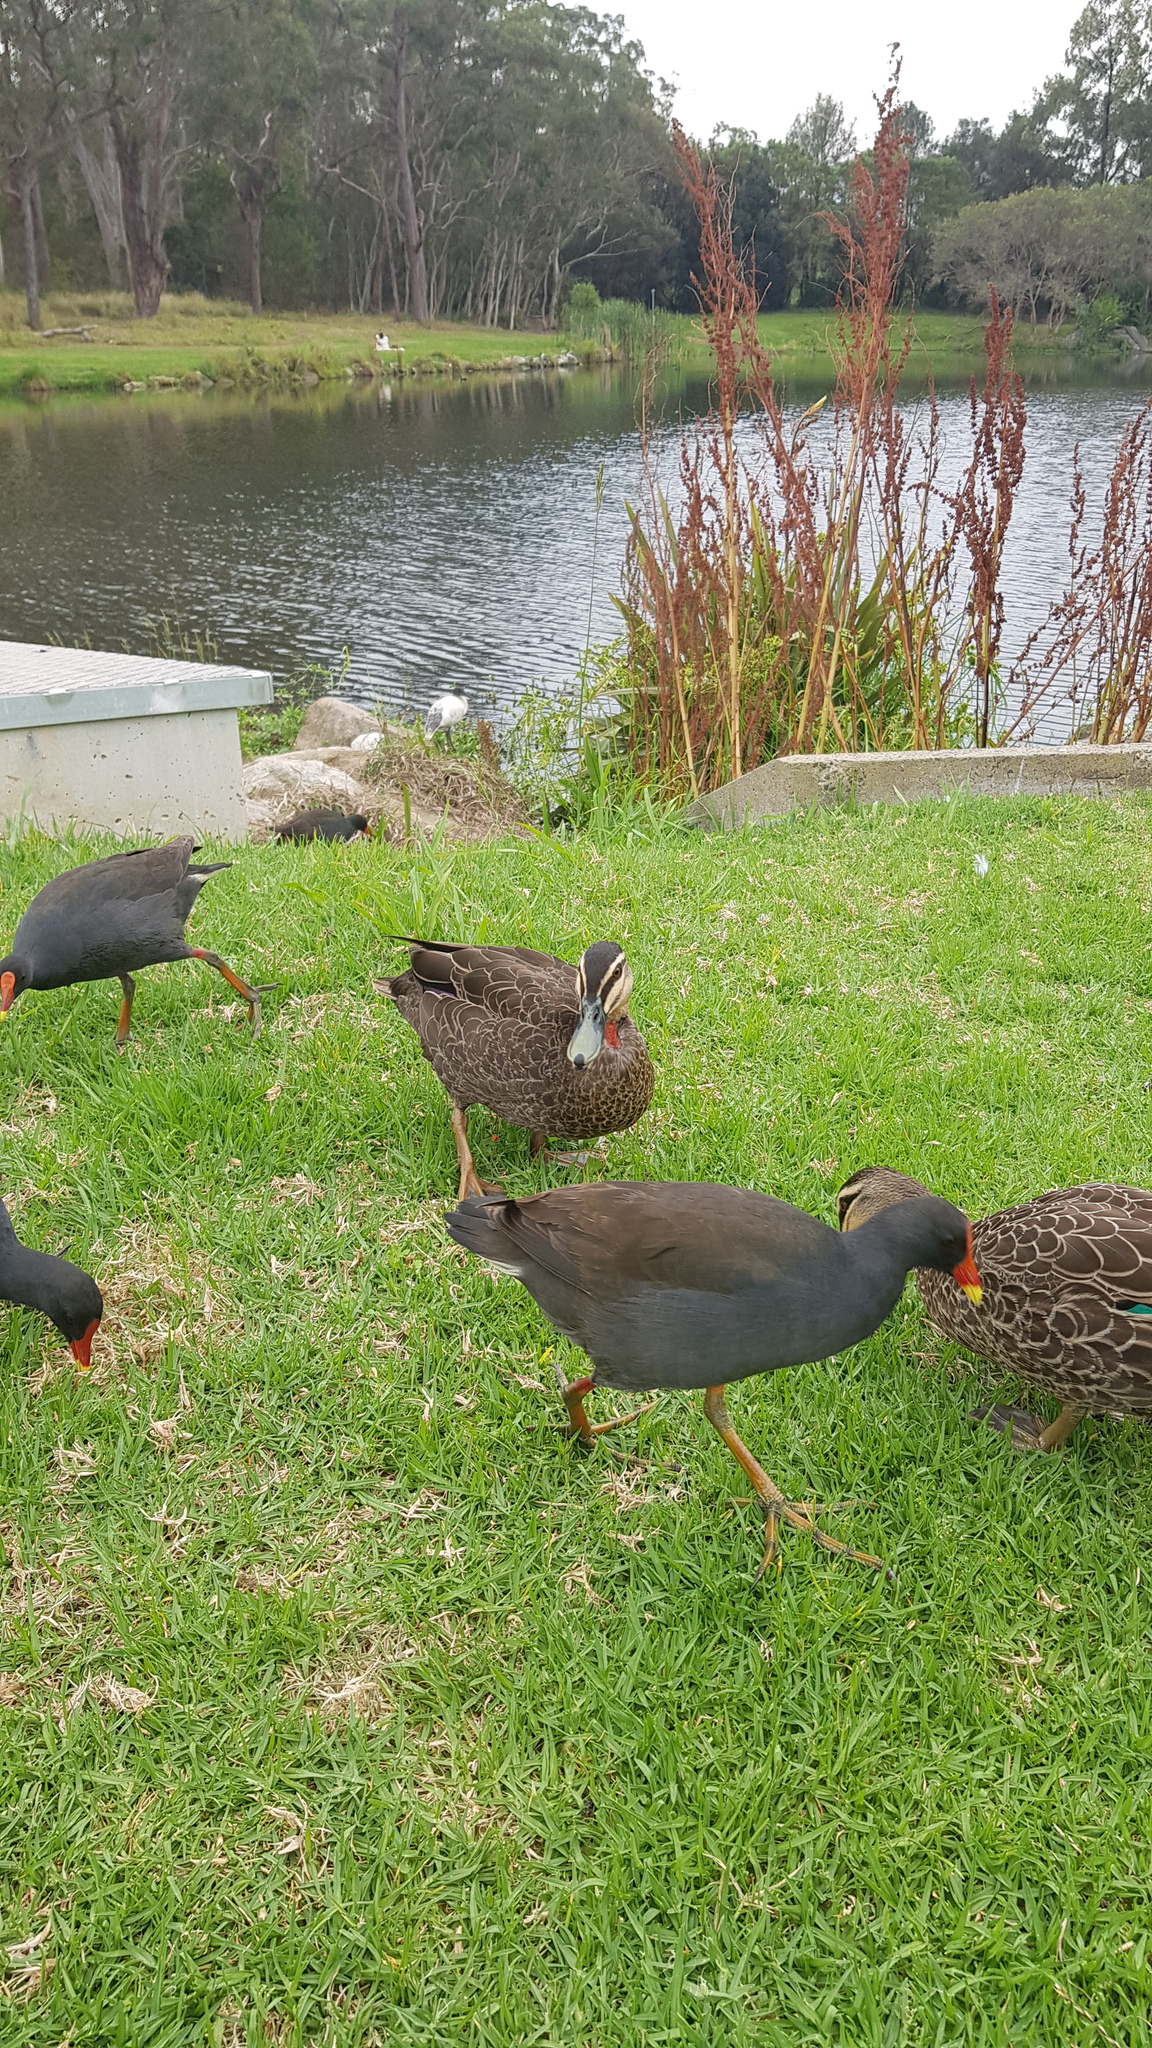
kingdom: Animalia
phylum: Chordata
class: Aves
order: Gruiformes
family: Rallidae
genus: Gallinula
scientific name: Gallinula tenebrosa
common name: Dusky moorhen
